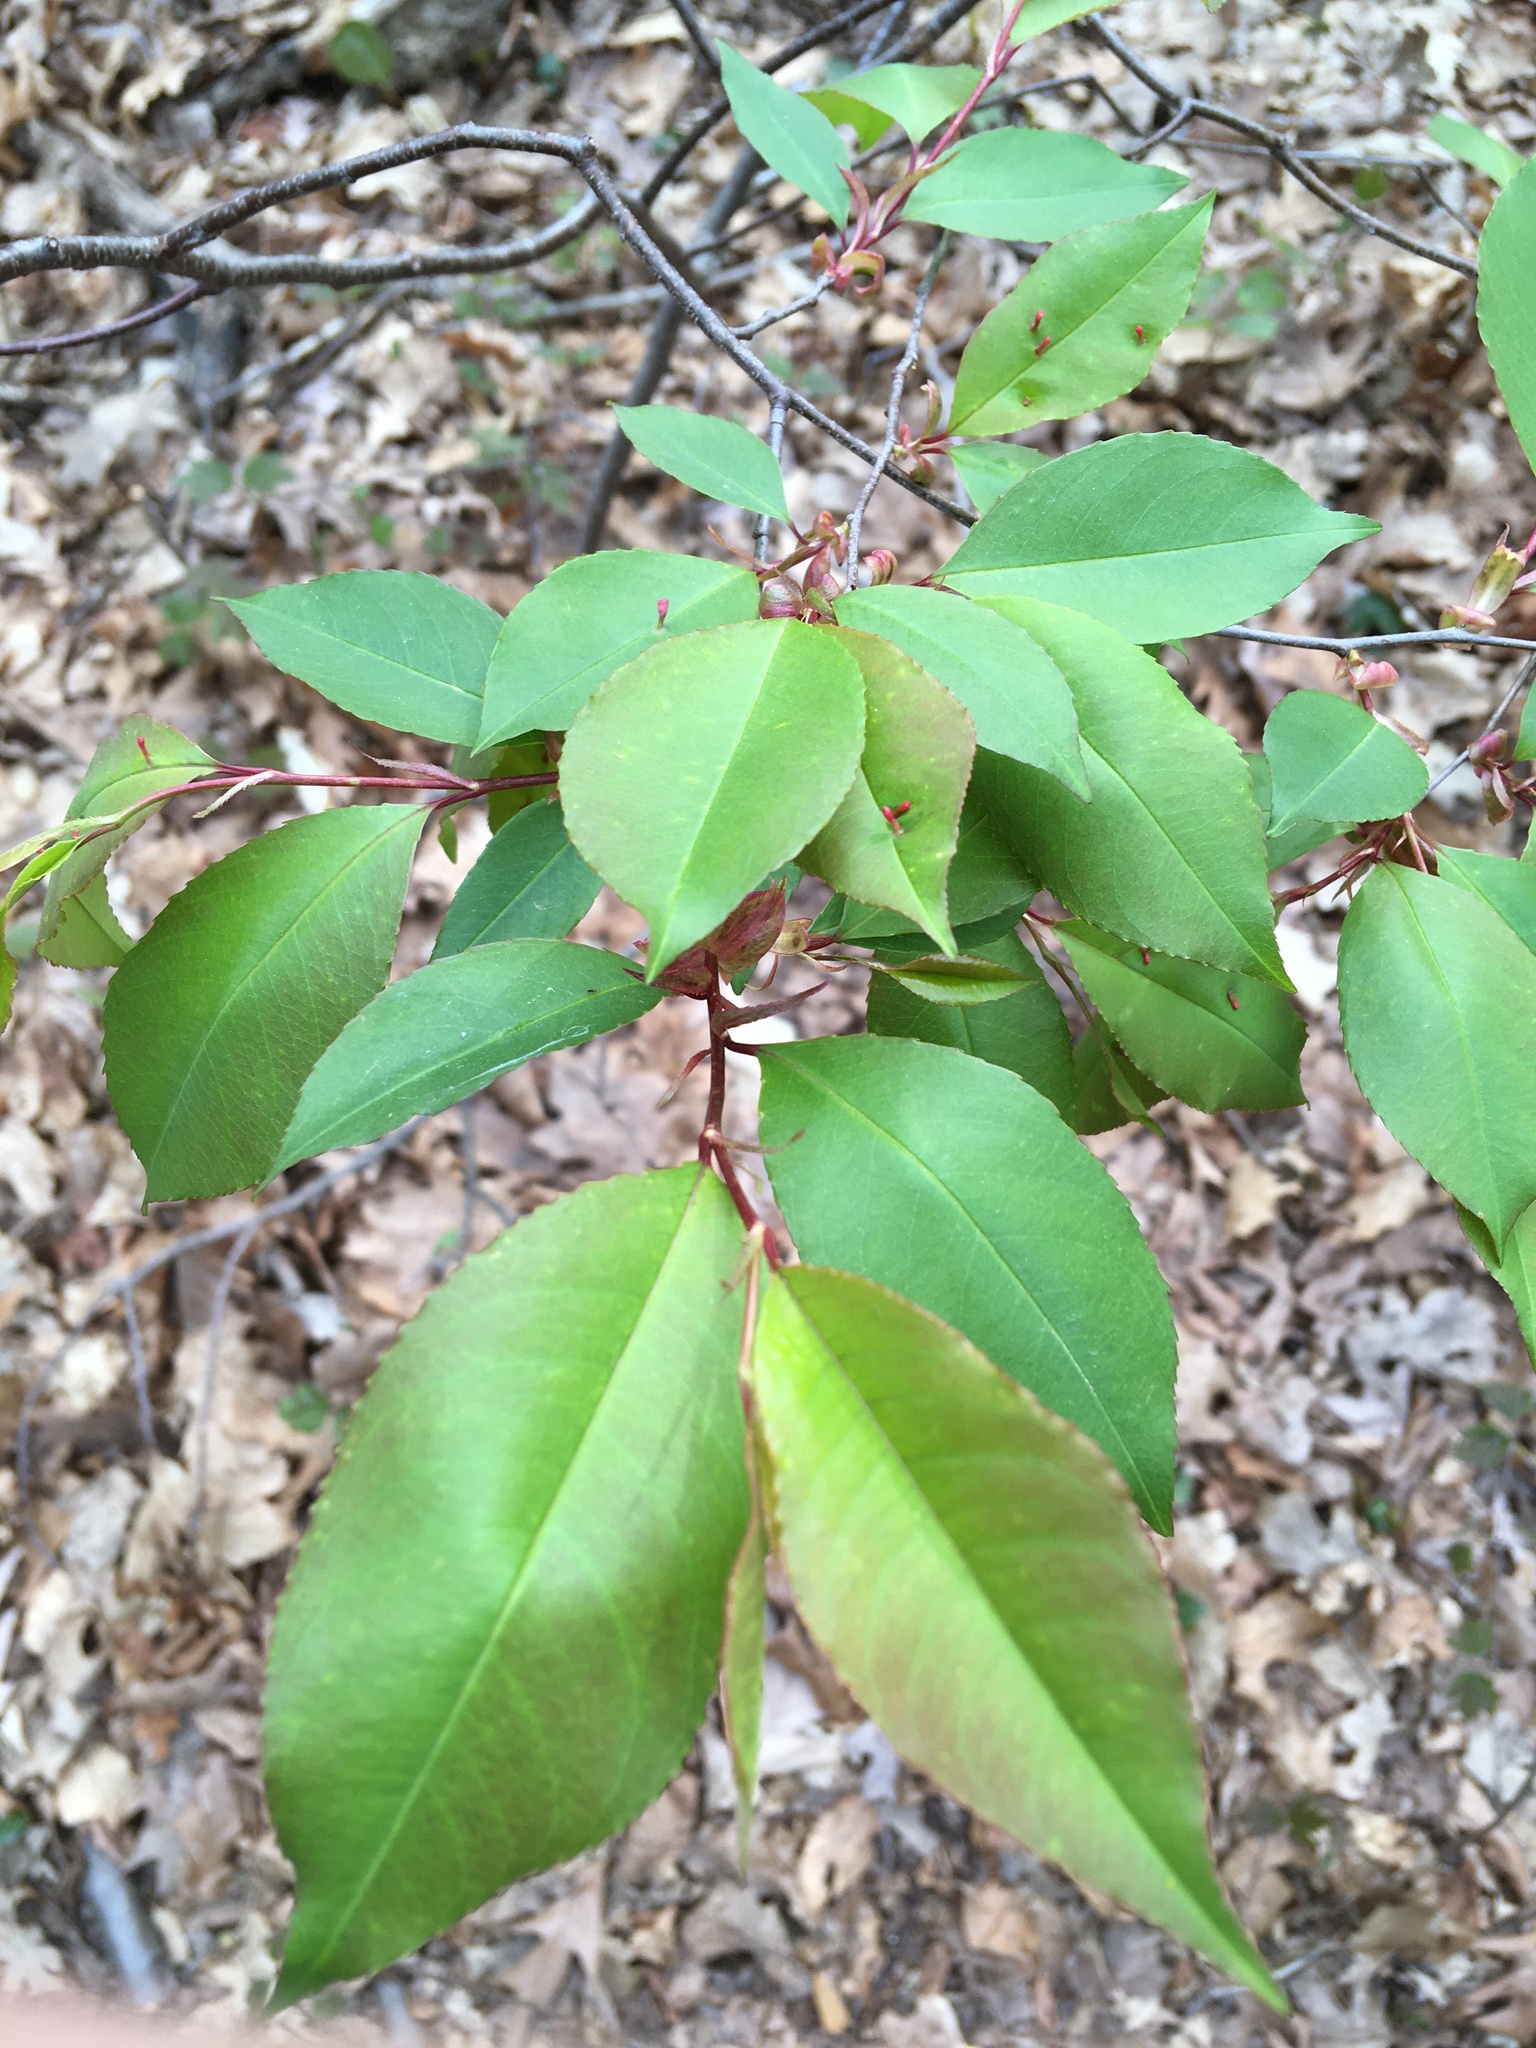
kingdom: Plantae
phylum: Tracheophyta
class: Magnoliopsida
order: Rosales
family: Rosaceae
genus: Prunus
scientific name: Prunus serotina
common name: Black cherry
